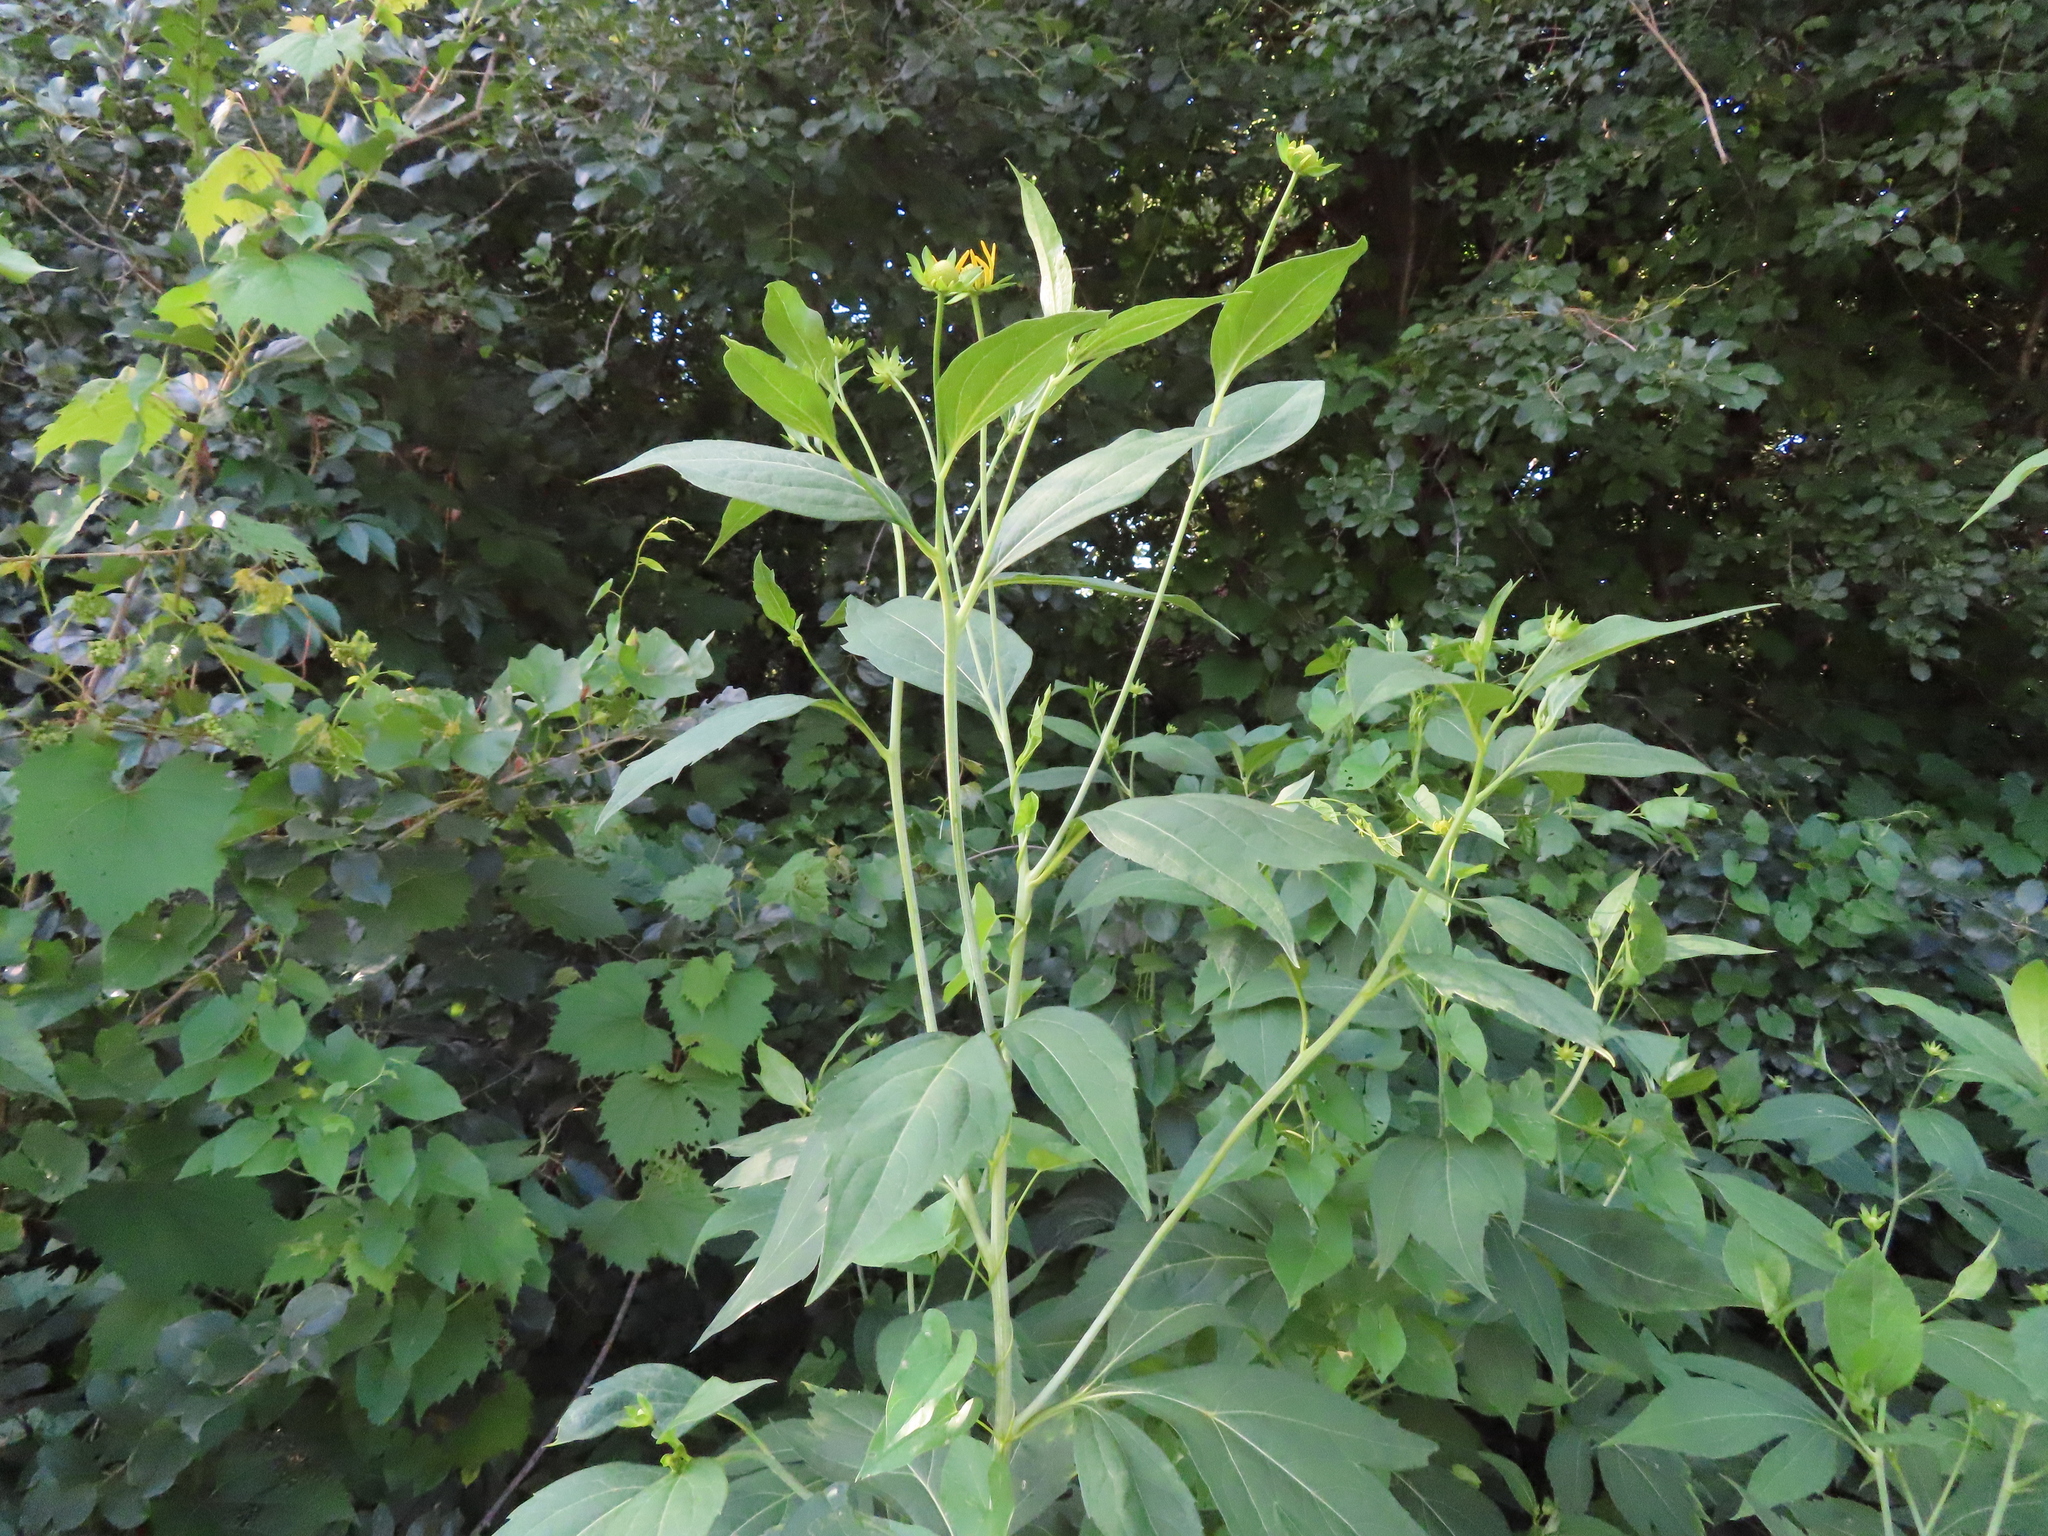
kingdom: Plantae
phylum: Tracheophyta
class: Magnoliopsida
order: Asterales
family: Asteraceae
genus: Rudbeckia
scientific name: Rudbeckia laciniata
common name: Coneflower
